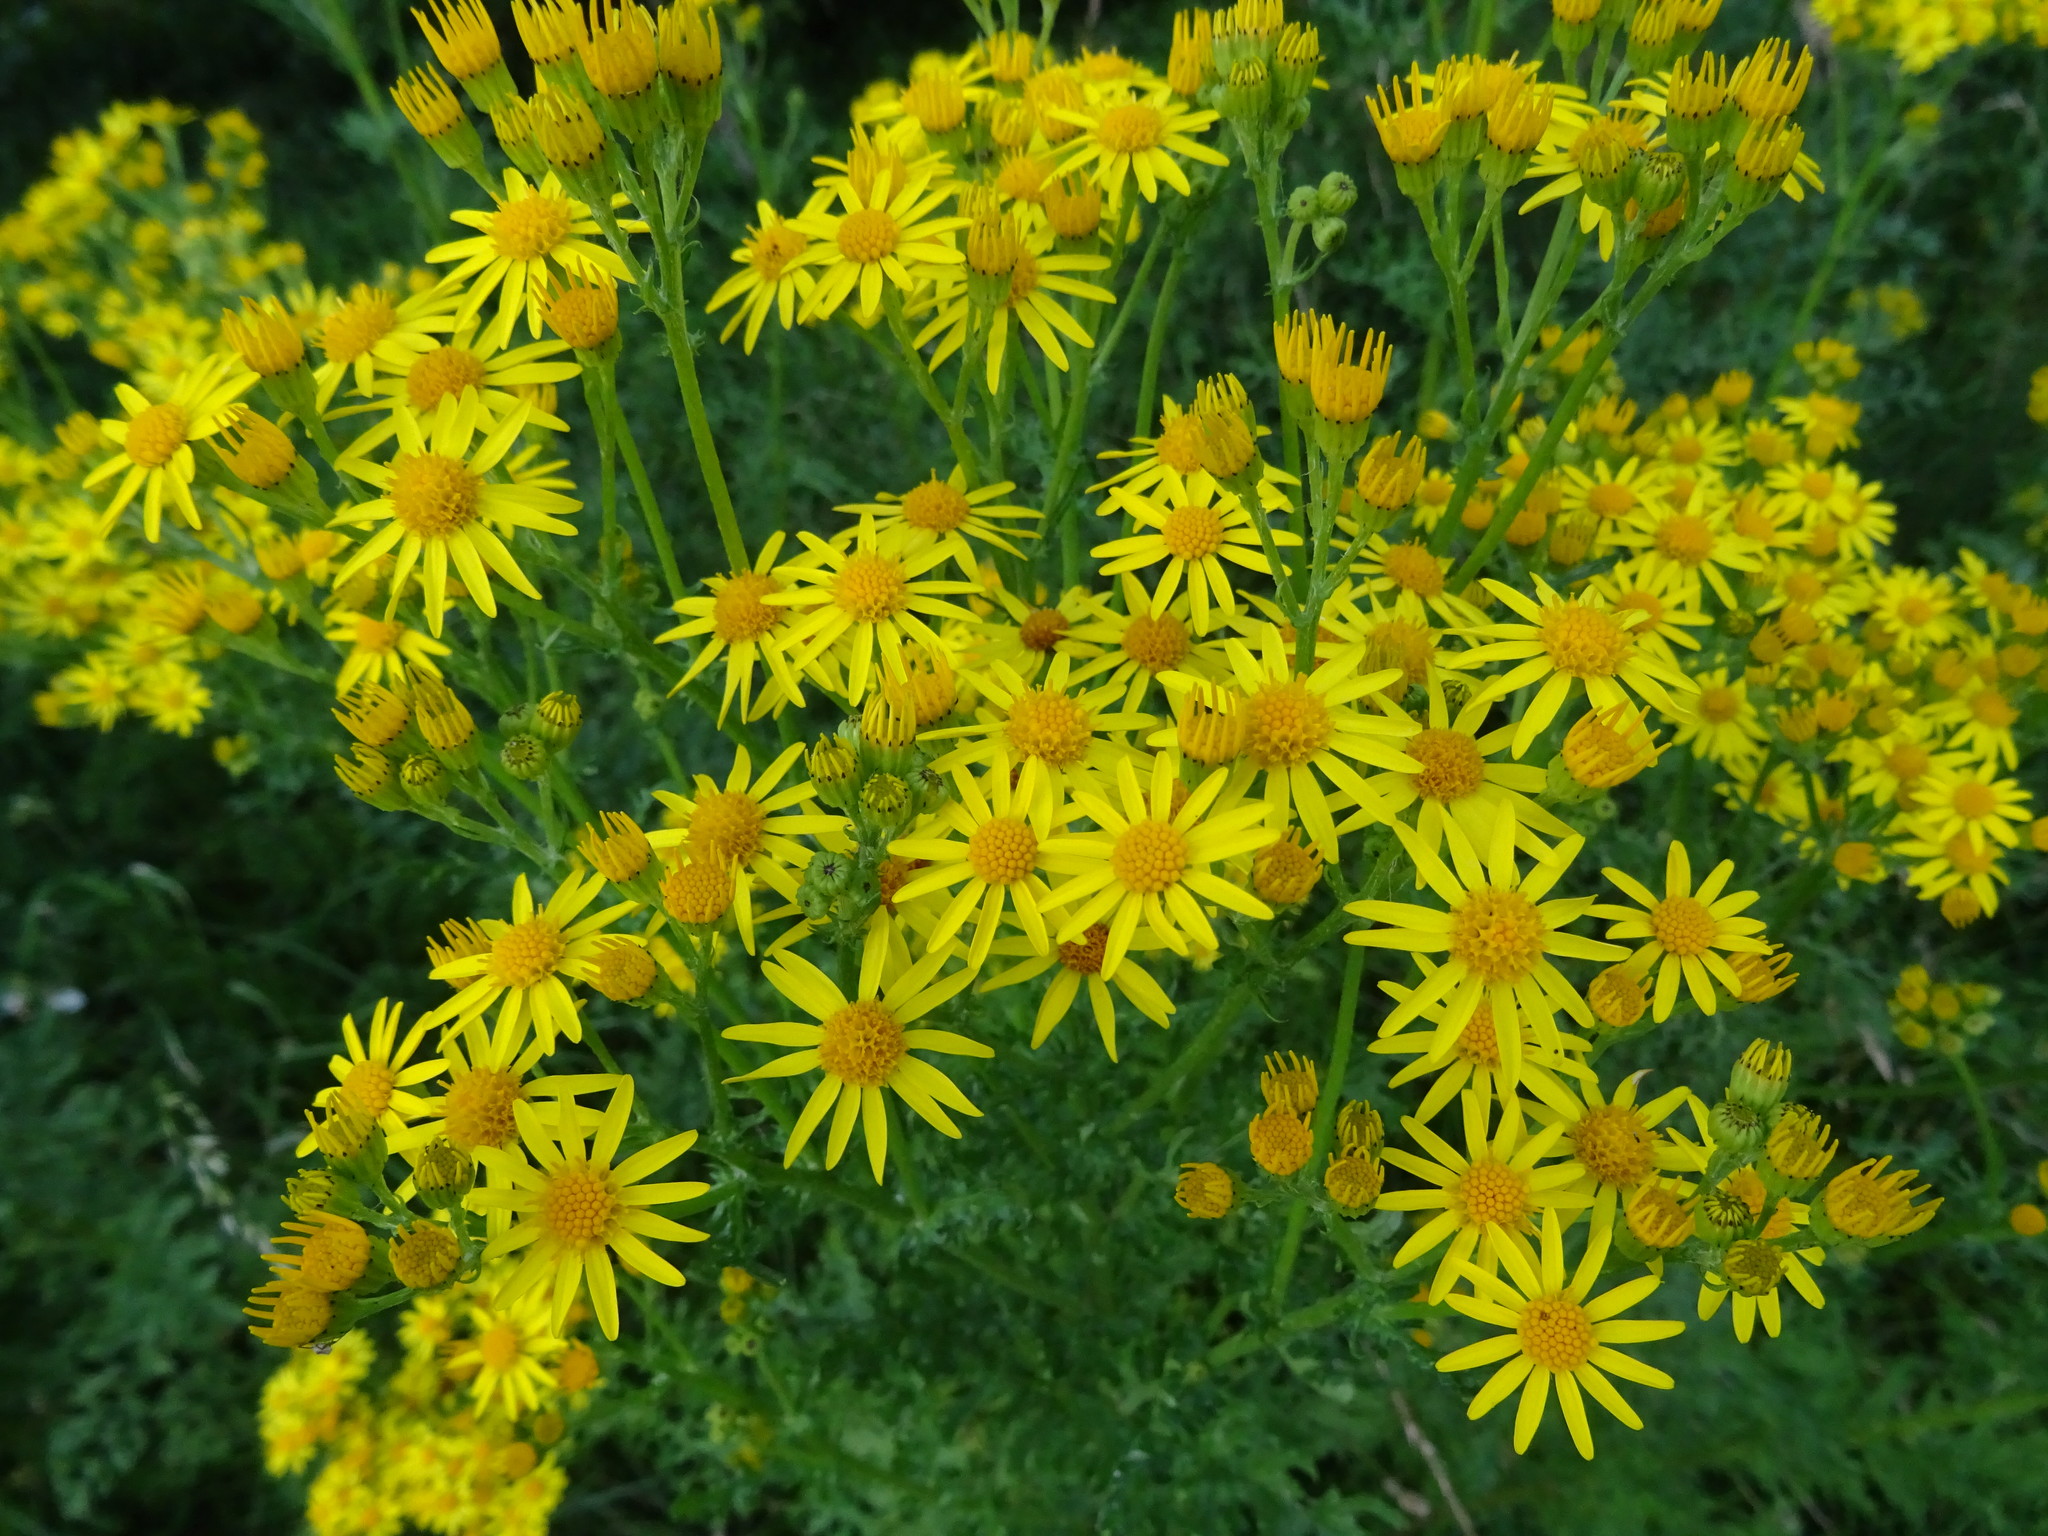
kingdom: Plantae
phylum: Tracheophyta
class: Magnoliopsida
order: Asterales
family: Asteraceae
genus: Jacobaea
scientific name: Jacobaea vulgaris
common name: Stinking willie
